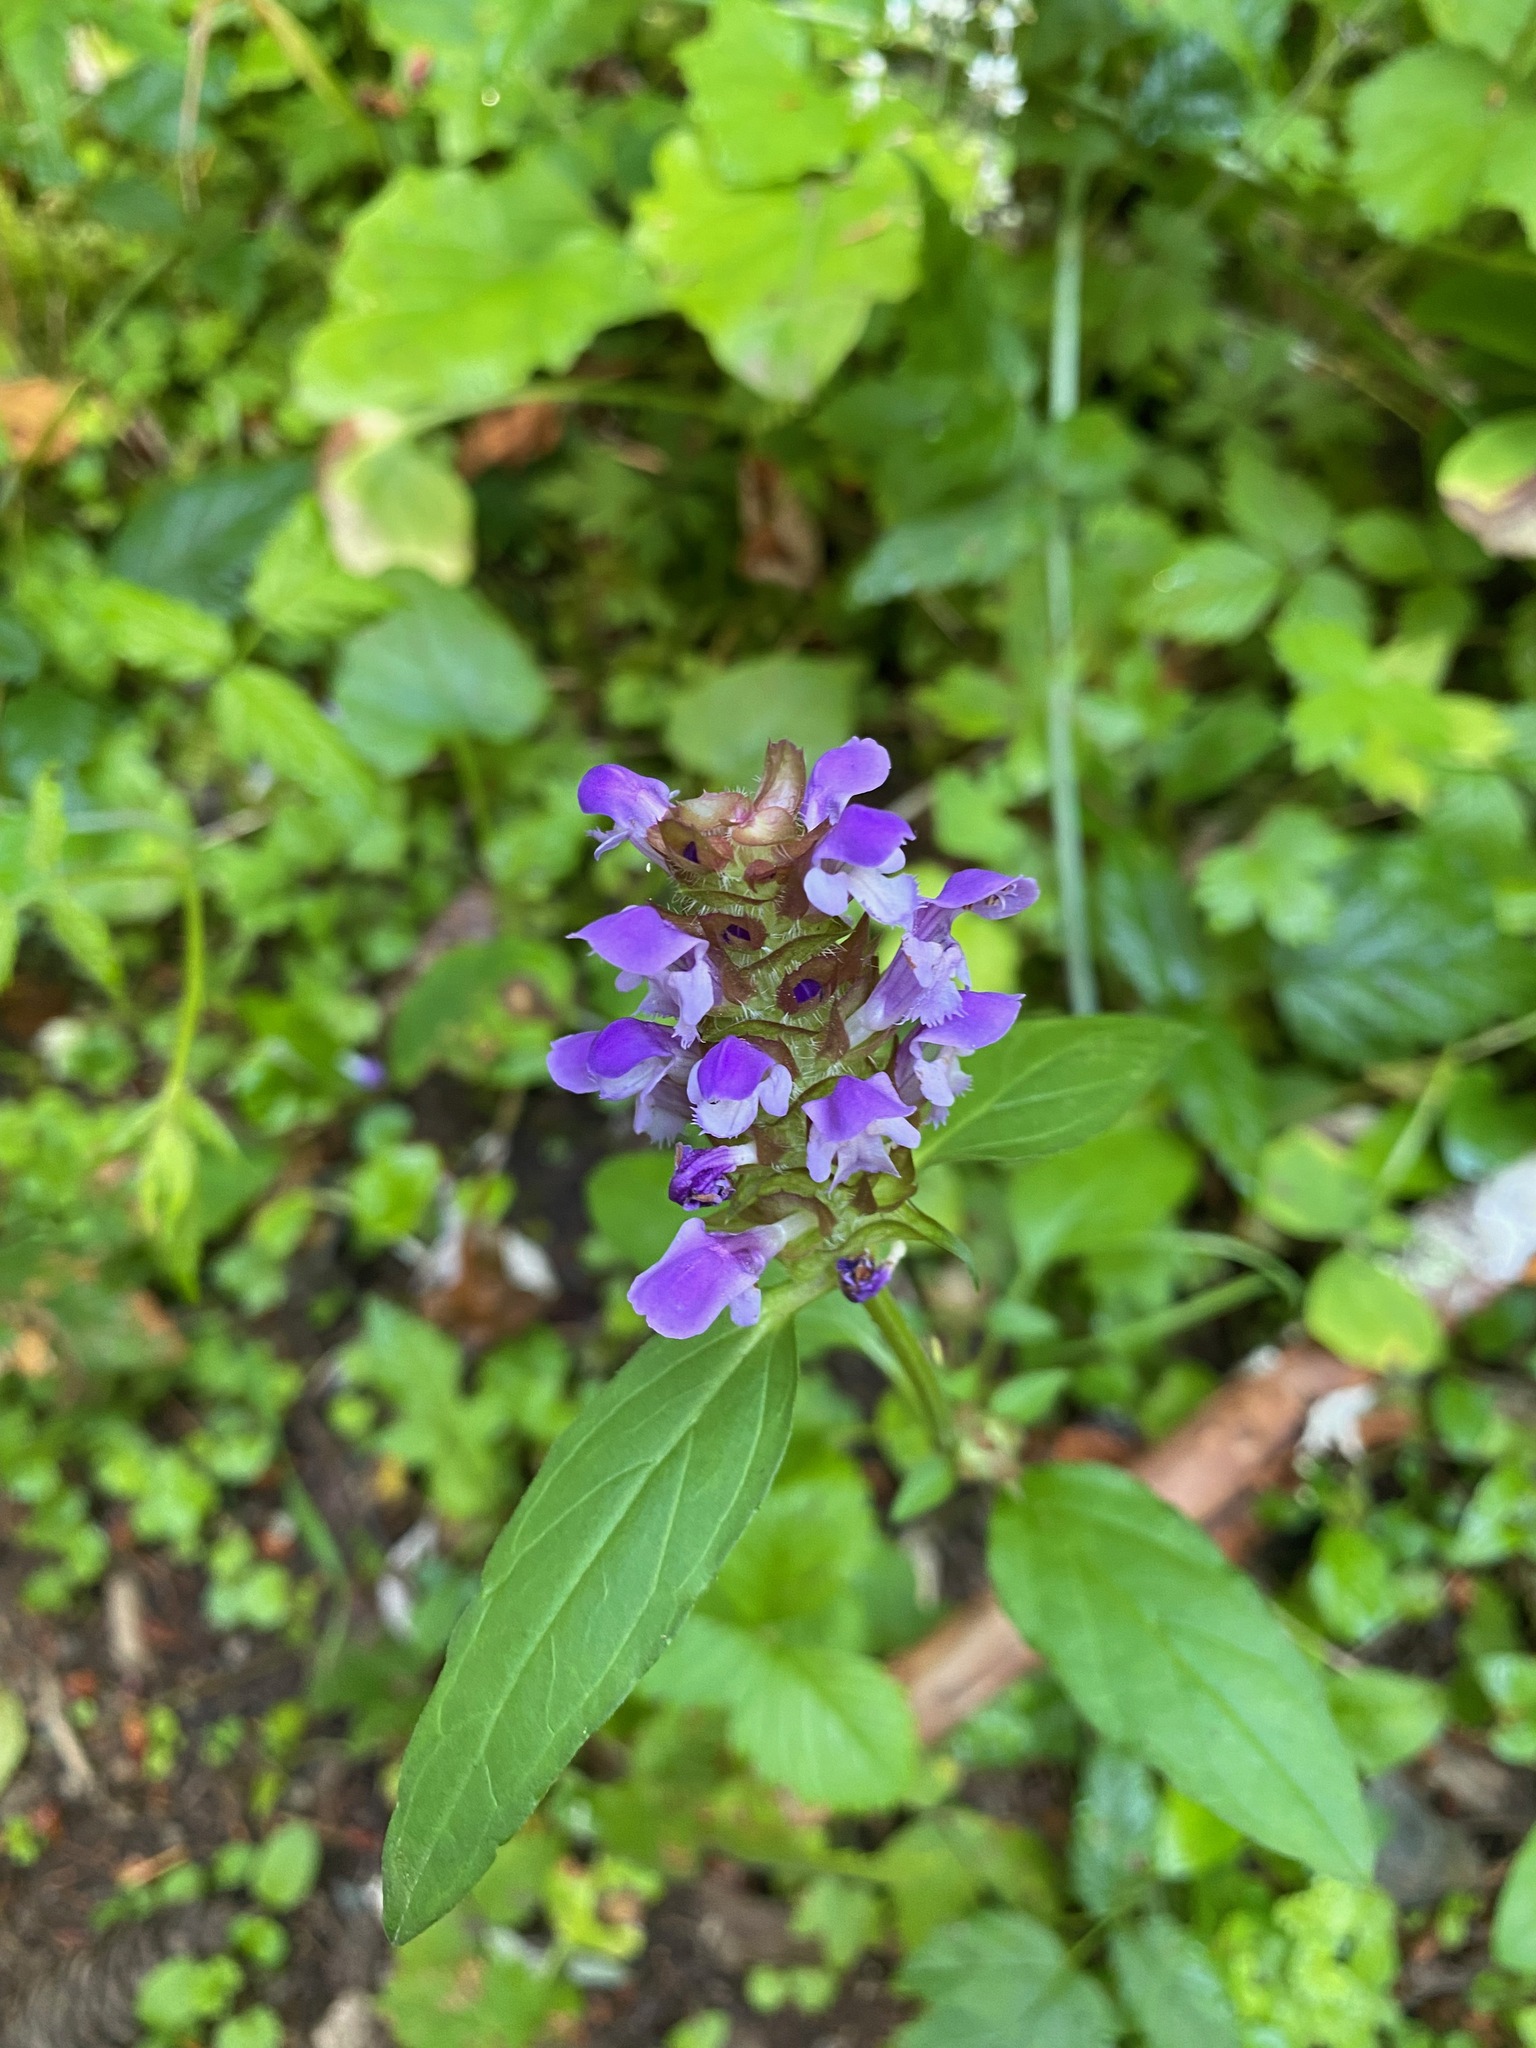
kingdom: Plantae
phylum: Tracheophyta
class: Magnoliopsida
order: Lamiales
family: Lamiaceae
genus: Prunella
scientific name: Prunella vulgaris
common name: Heal-all
